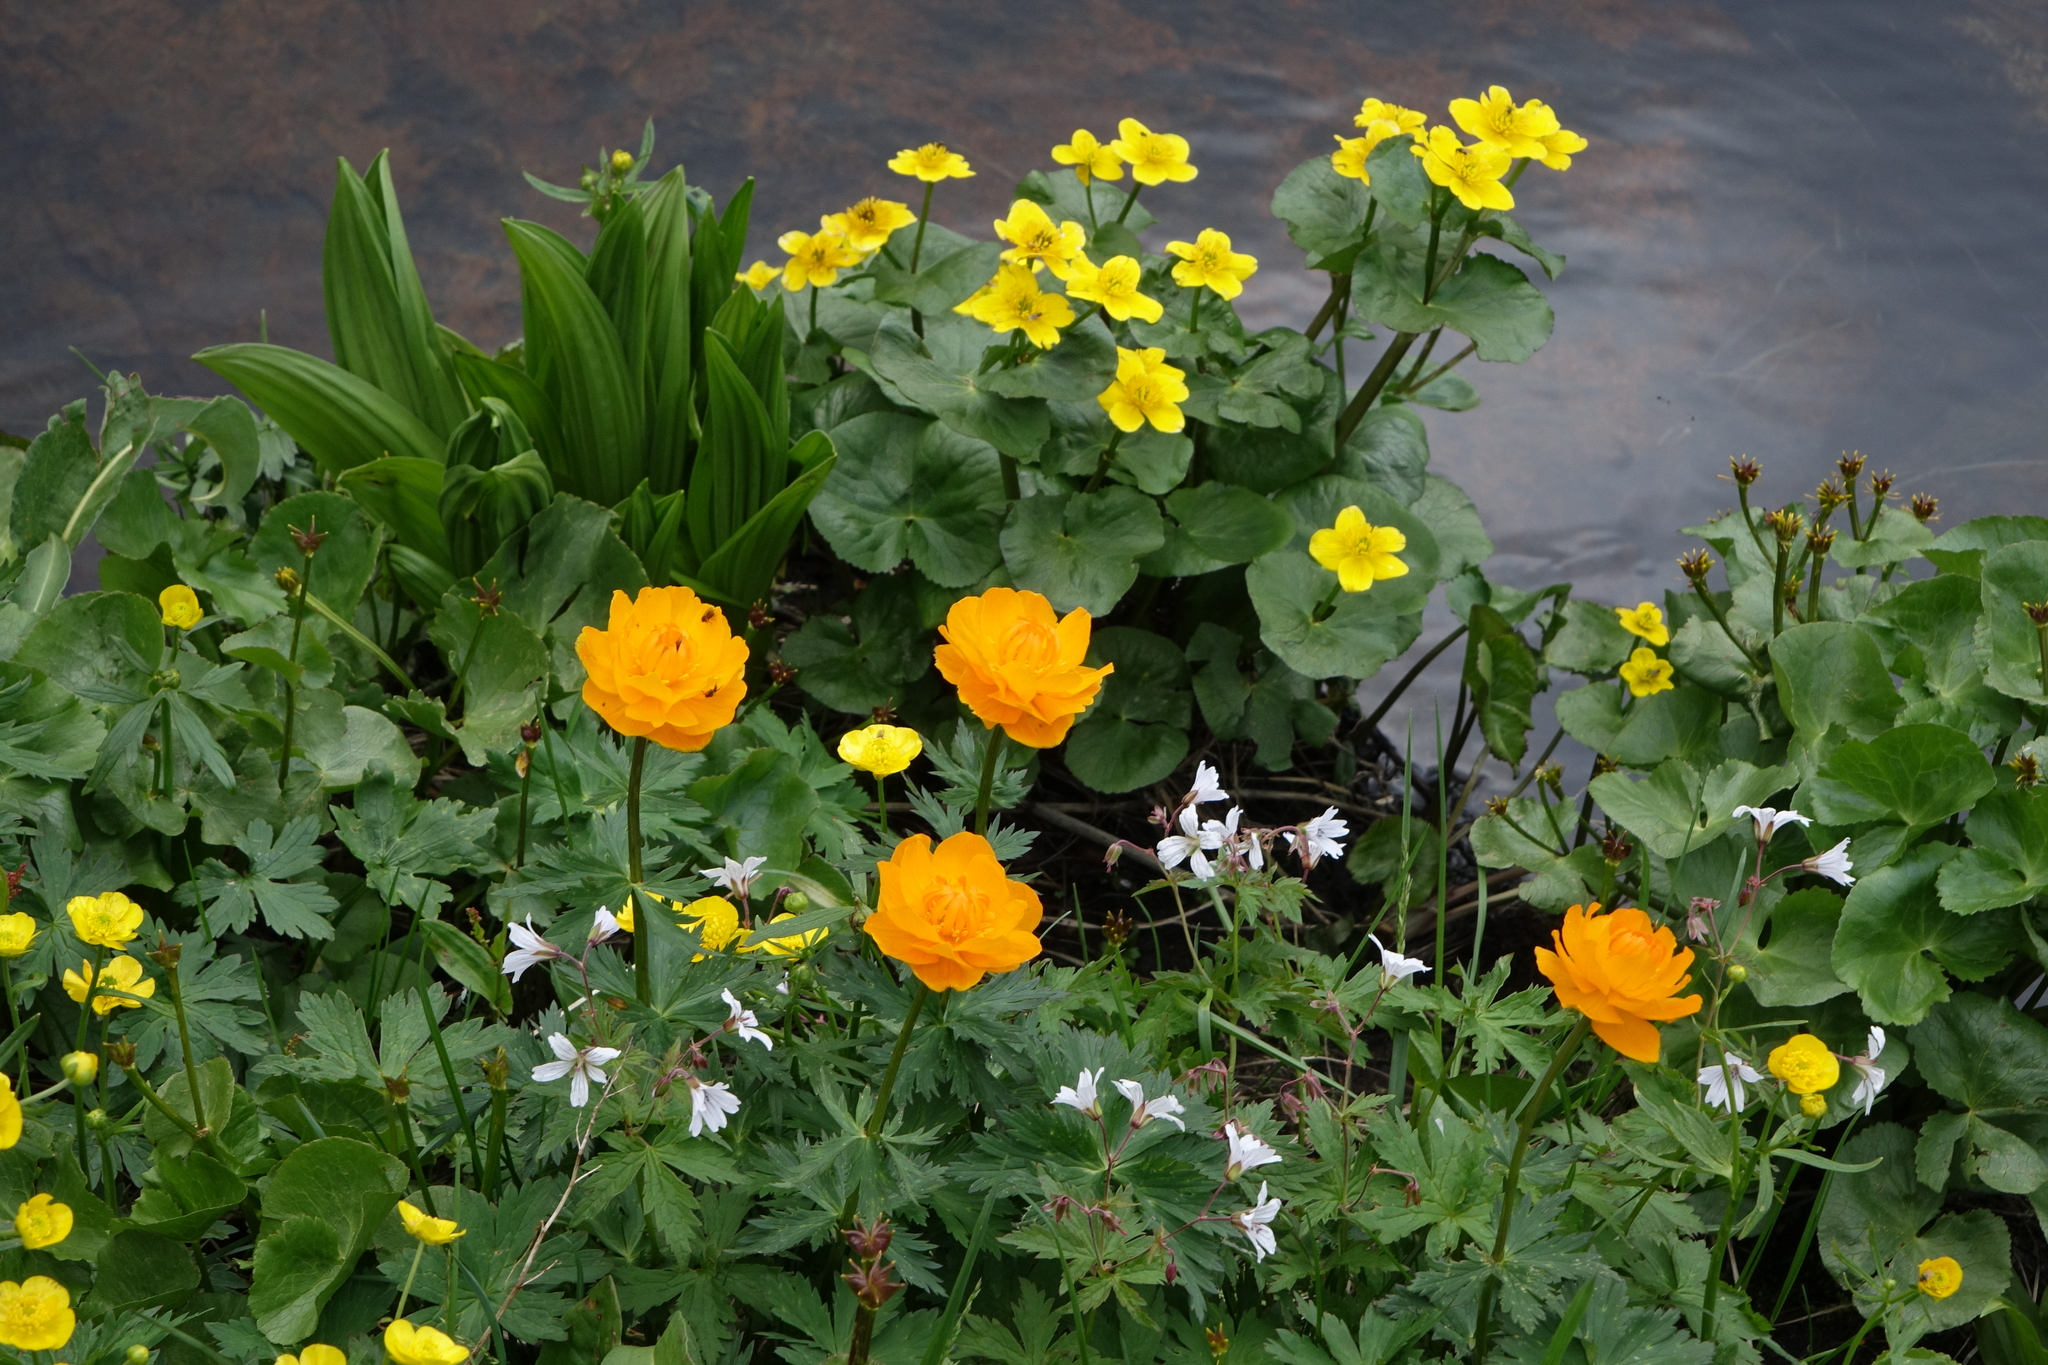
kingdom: Plantae
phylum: Tracheophyta
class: Magnoliopsida
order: Ranunculales
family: Ranunculaceae
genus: Trollius
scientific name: Trollius asiaticus
